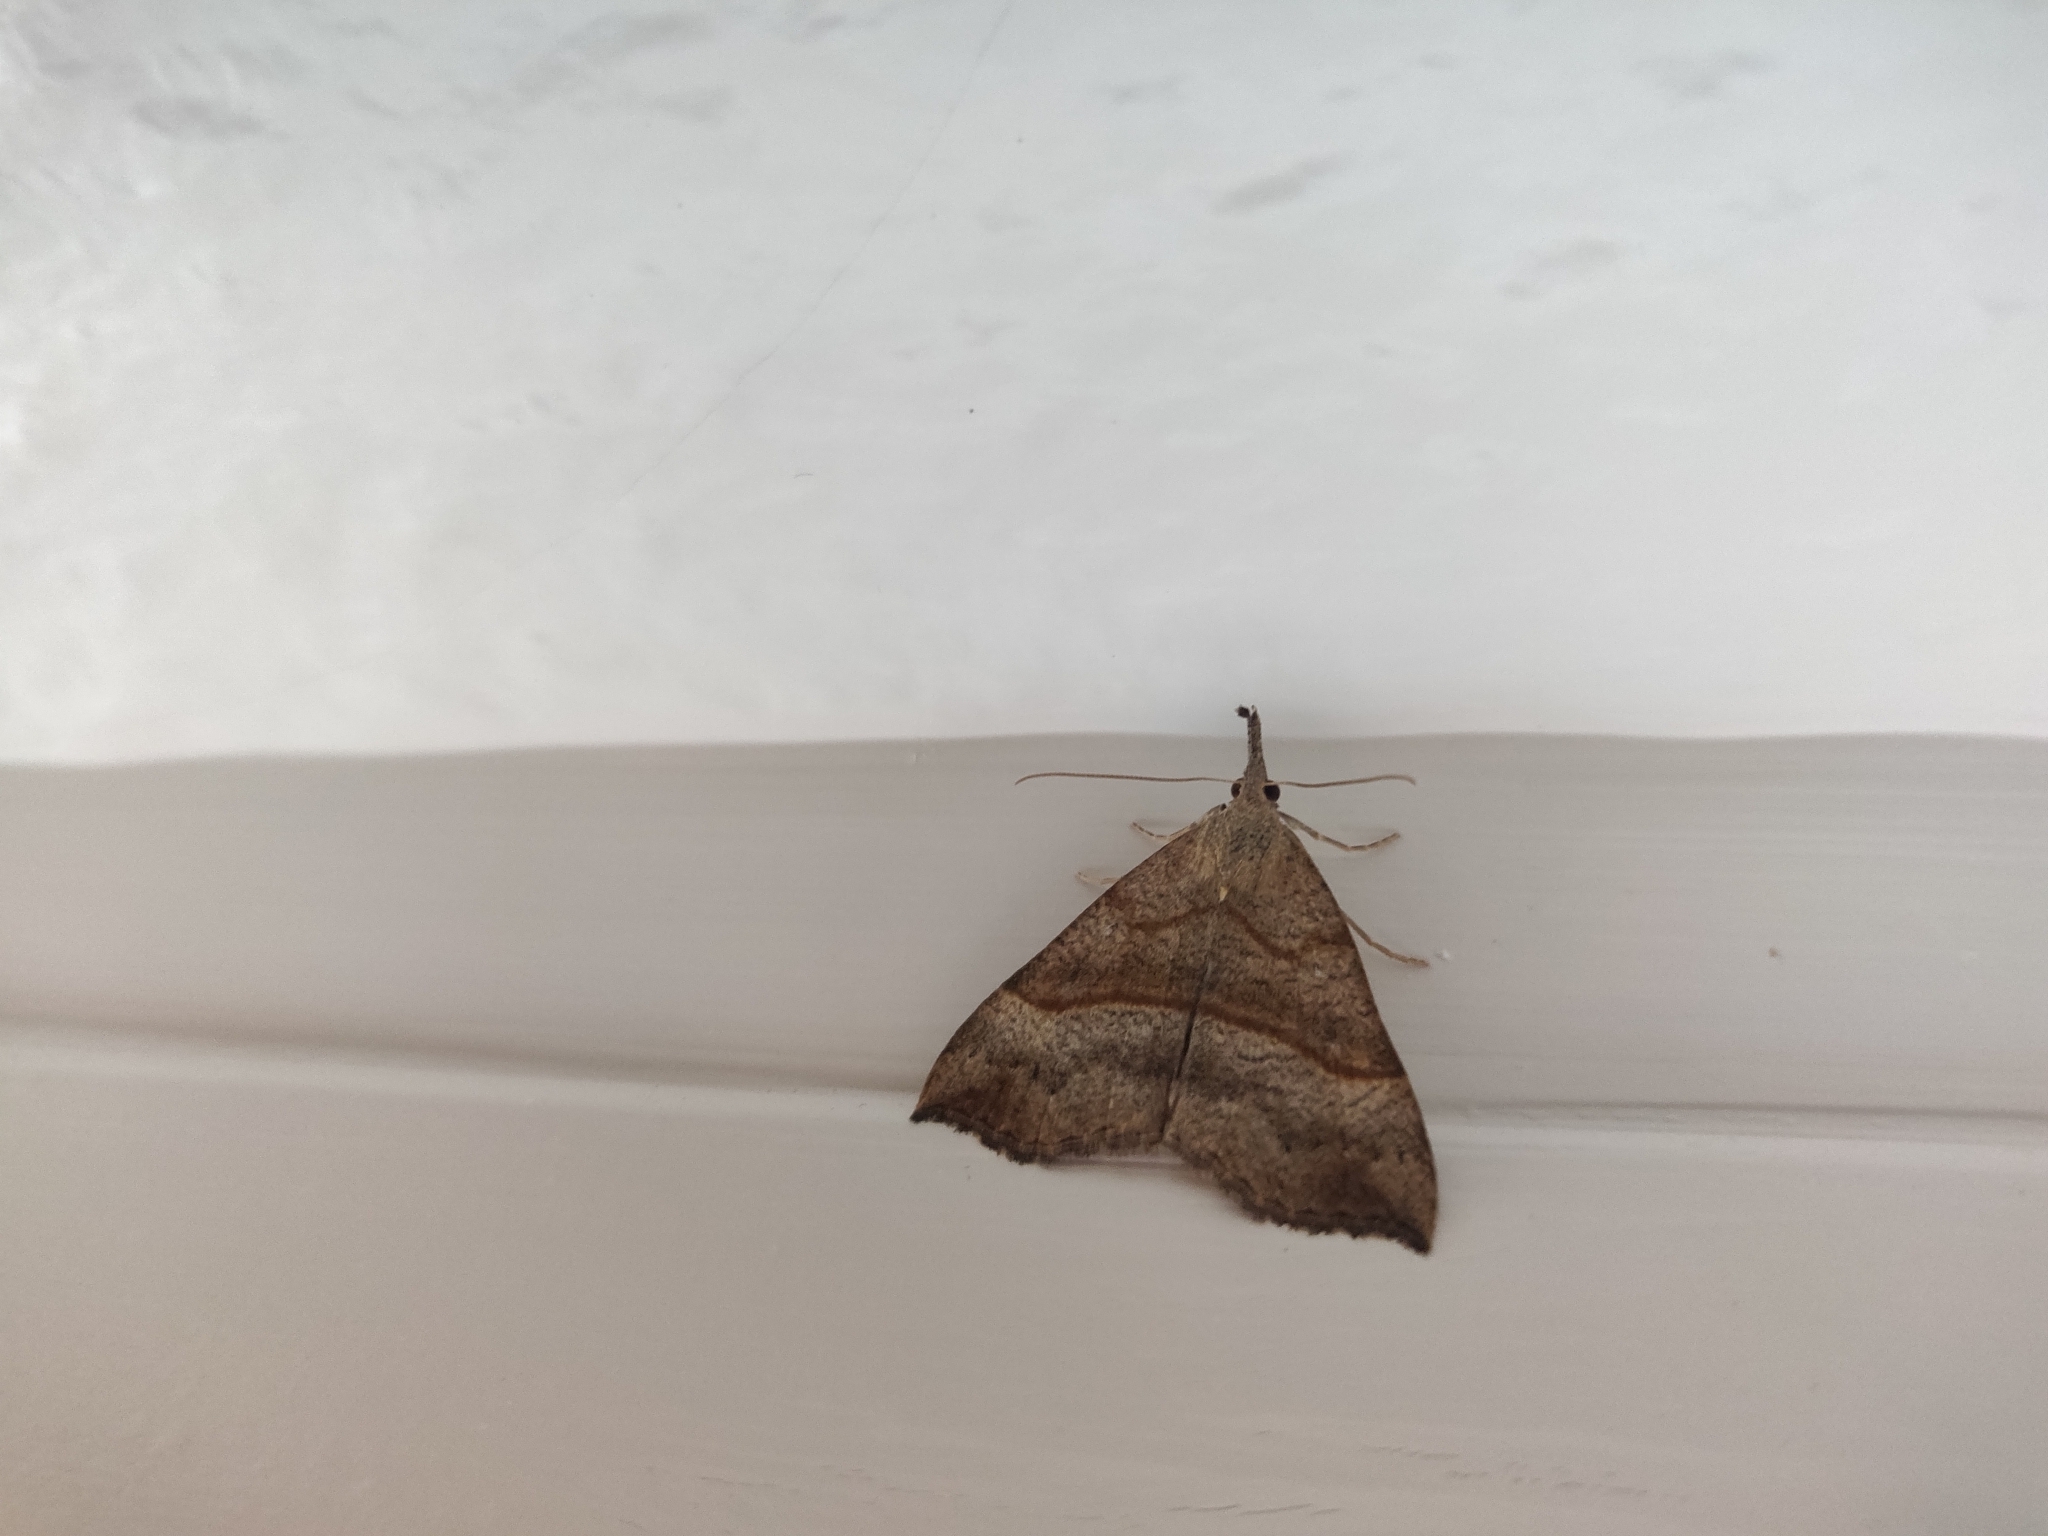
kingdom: Animalia
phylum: Arthropoda
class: Insecta
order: Lepidoptera
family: Erebidae
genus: Hypena
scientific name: Hypena proboscidalis
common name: Snout
